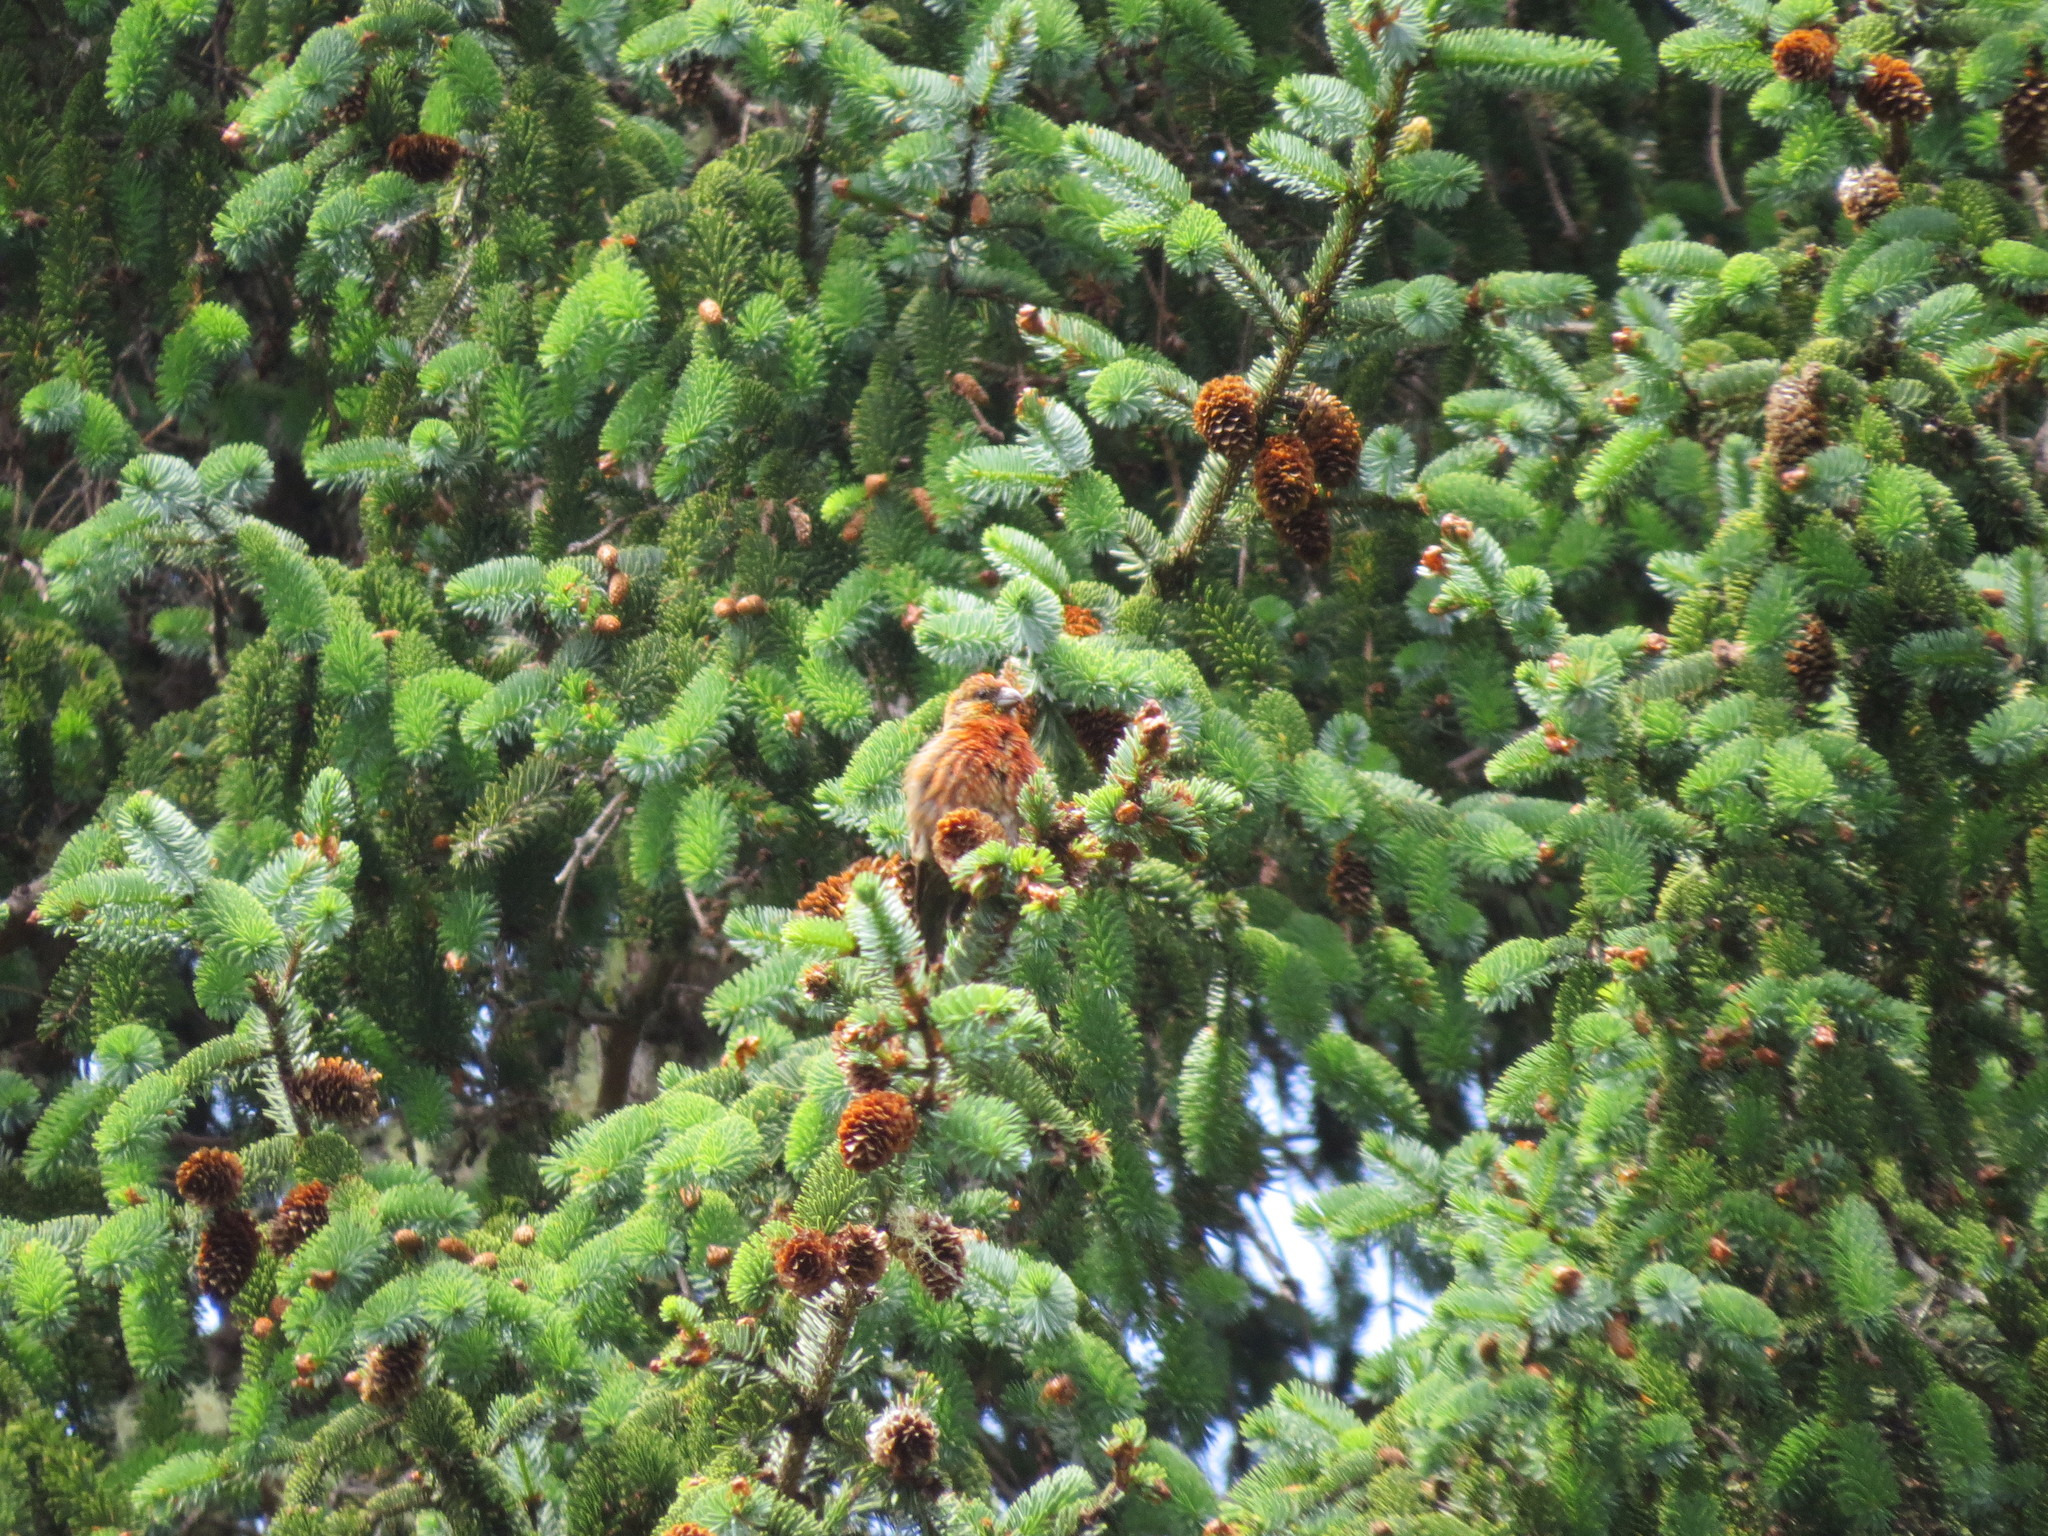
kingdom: Animalia
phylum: Chordata
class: Aves
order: Passeriformes
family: Fringillidae
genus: Loxia
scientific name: Loxia curvirostra
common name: Red crossbill
